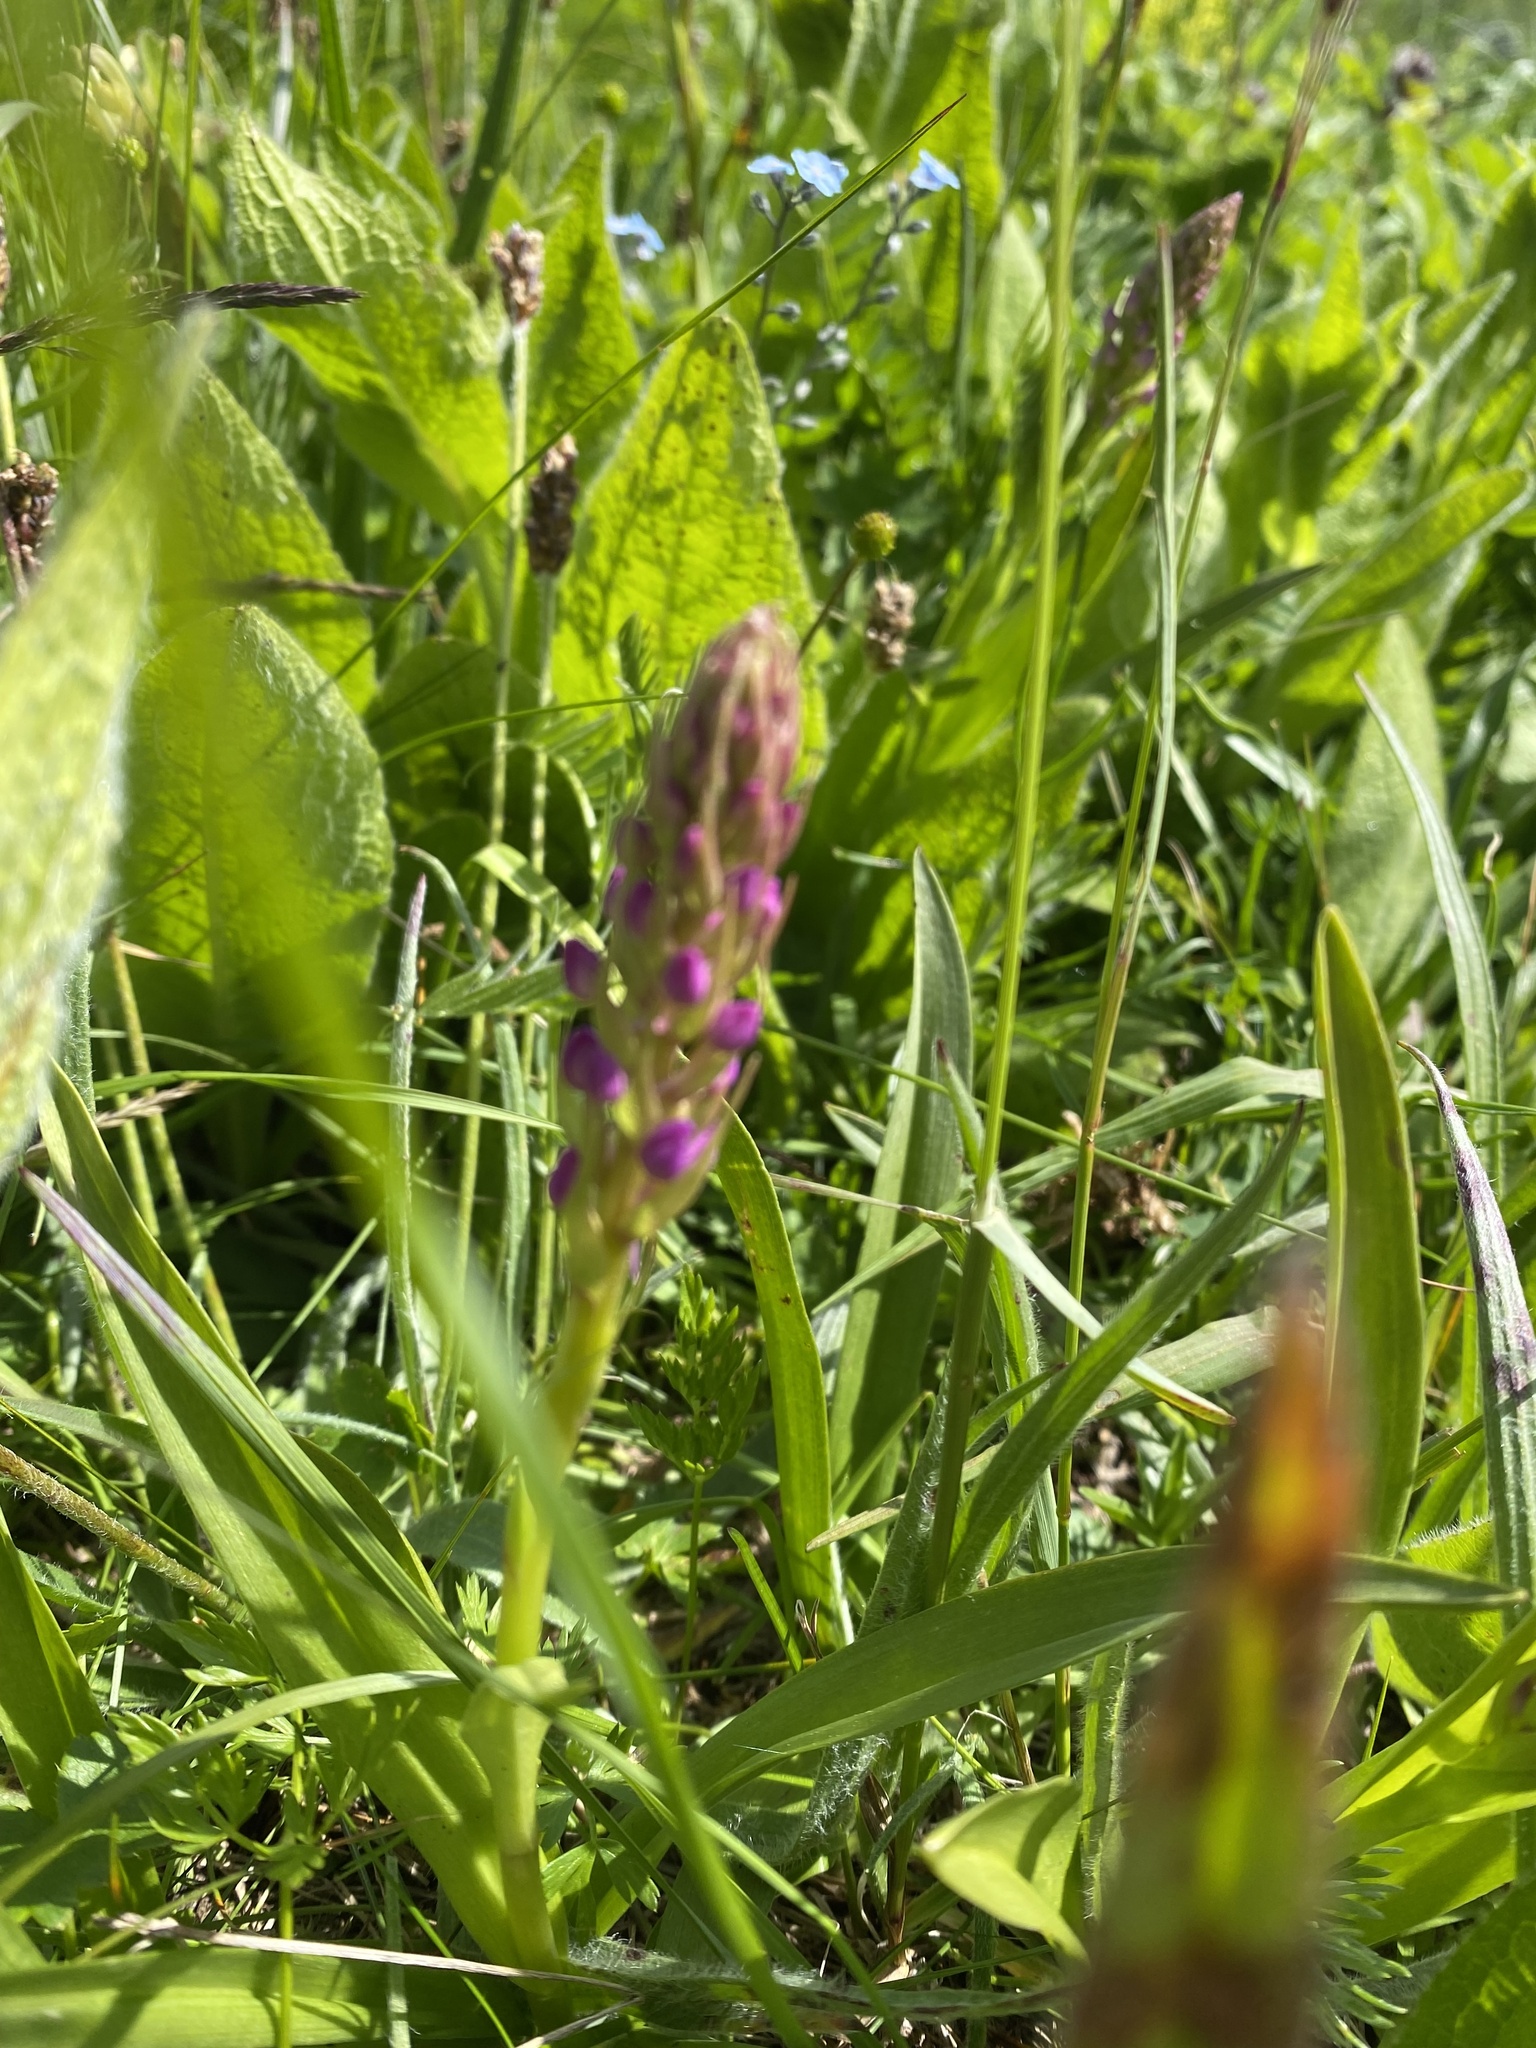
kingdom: Plantae
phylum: Tracheophyta
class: Liliopsida
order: Asparagales
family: Orchidaceae
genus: Gymnadenia
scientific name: Gymnadenia conopsea
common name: Fragrant orchid
